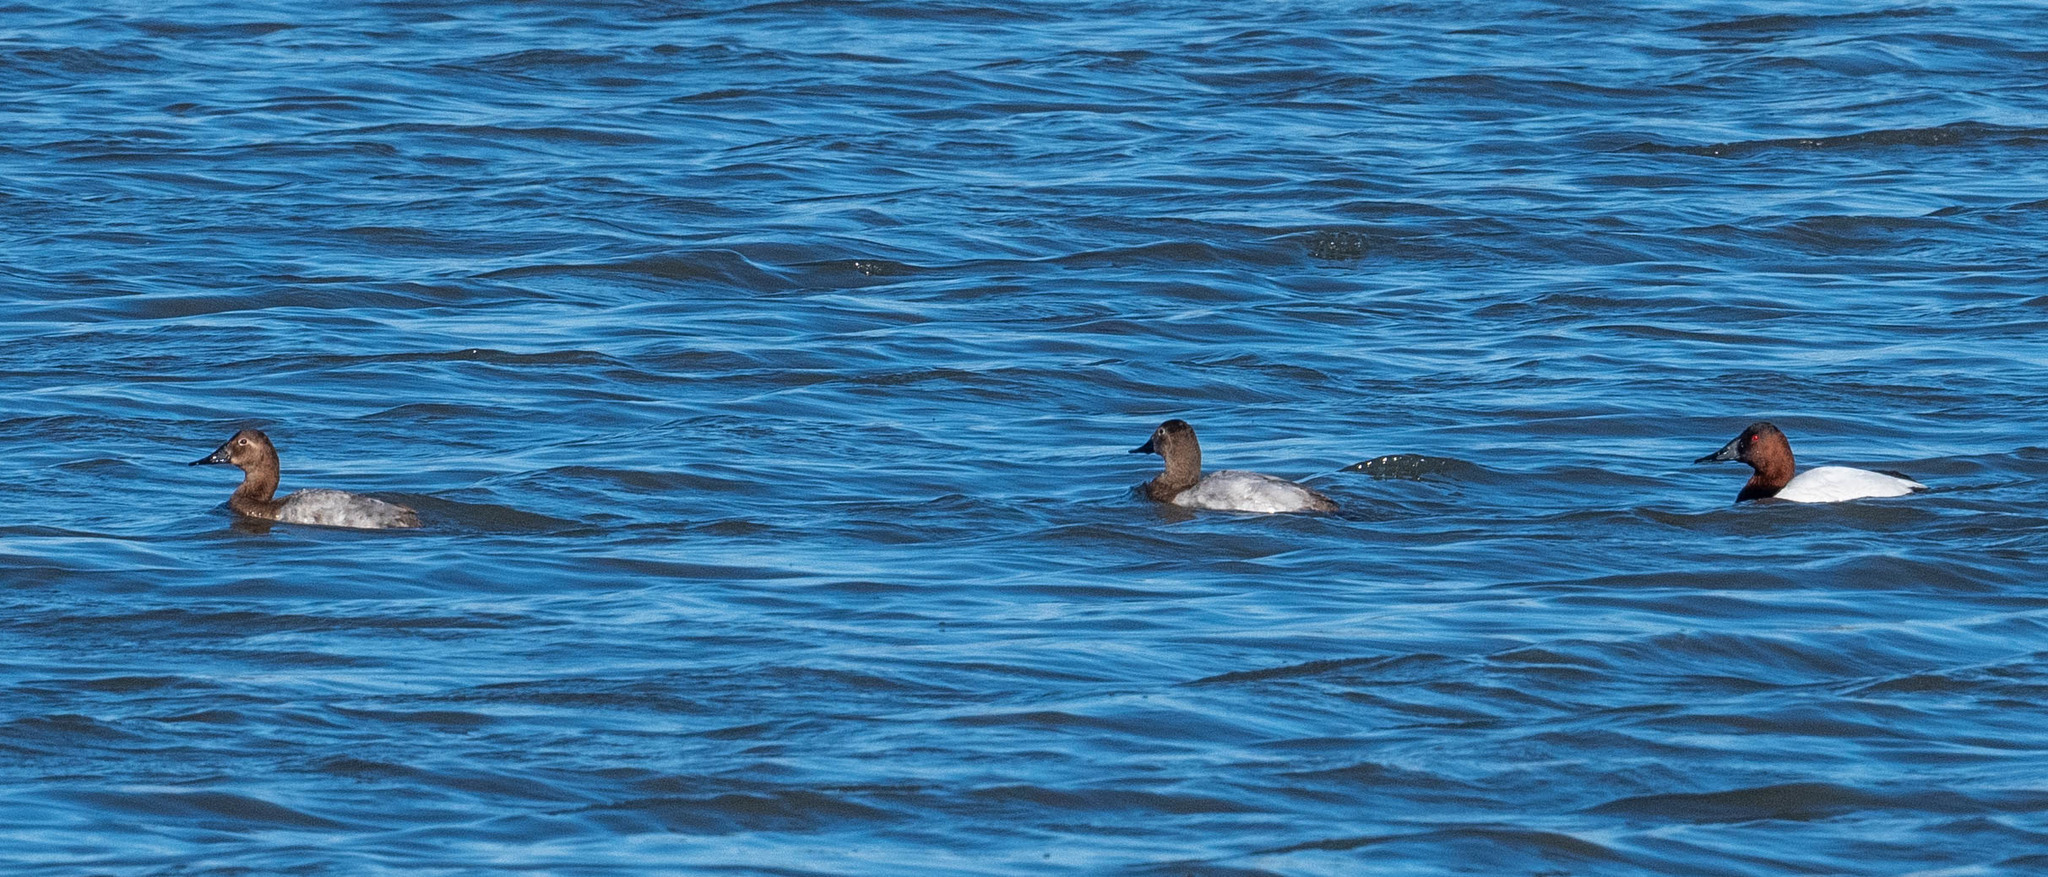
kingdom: Animalia
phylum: Chordata
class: Aves
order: Anseriformes
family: Anatidae
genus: Aythya
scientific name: Aythya valisineria
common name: Canvasback
